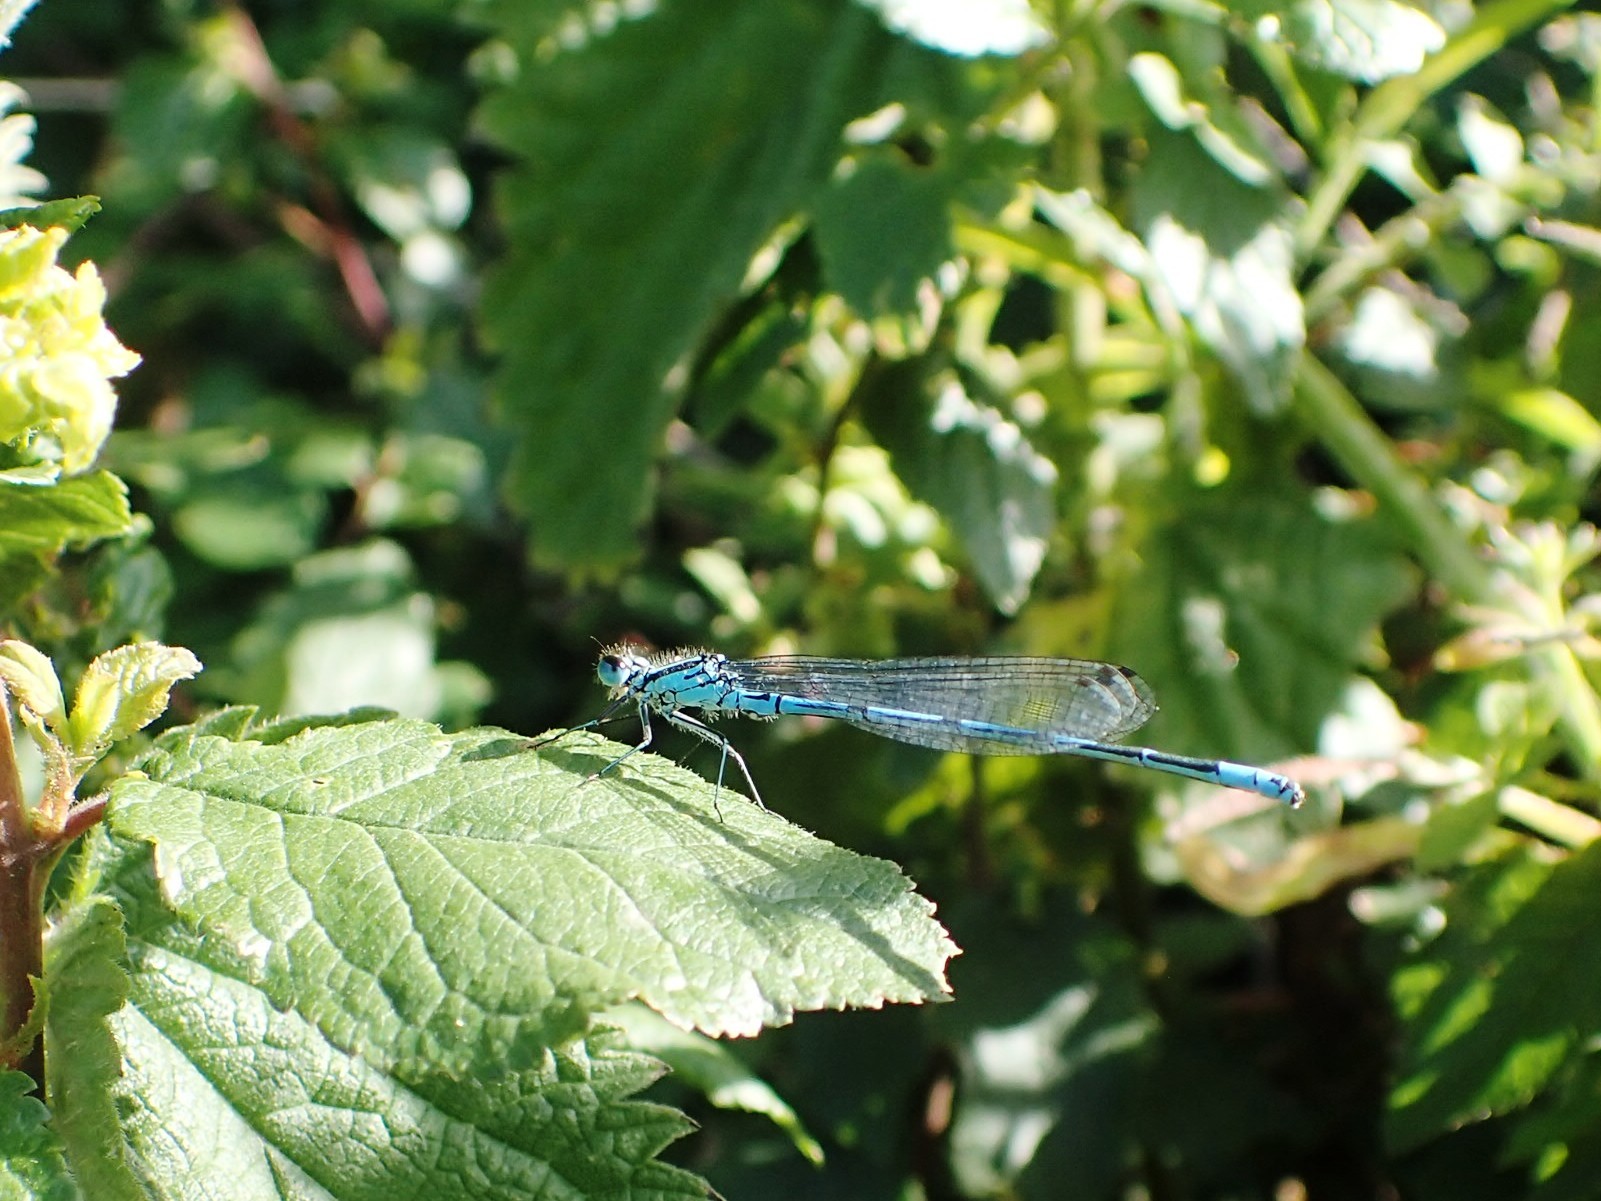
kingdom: Animalia
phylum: Arthropoda
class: Insecta
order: Odonata
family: Coenagrionidae
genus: Coenagrion
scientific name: Coenagrion puella
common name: Azure damselfly
